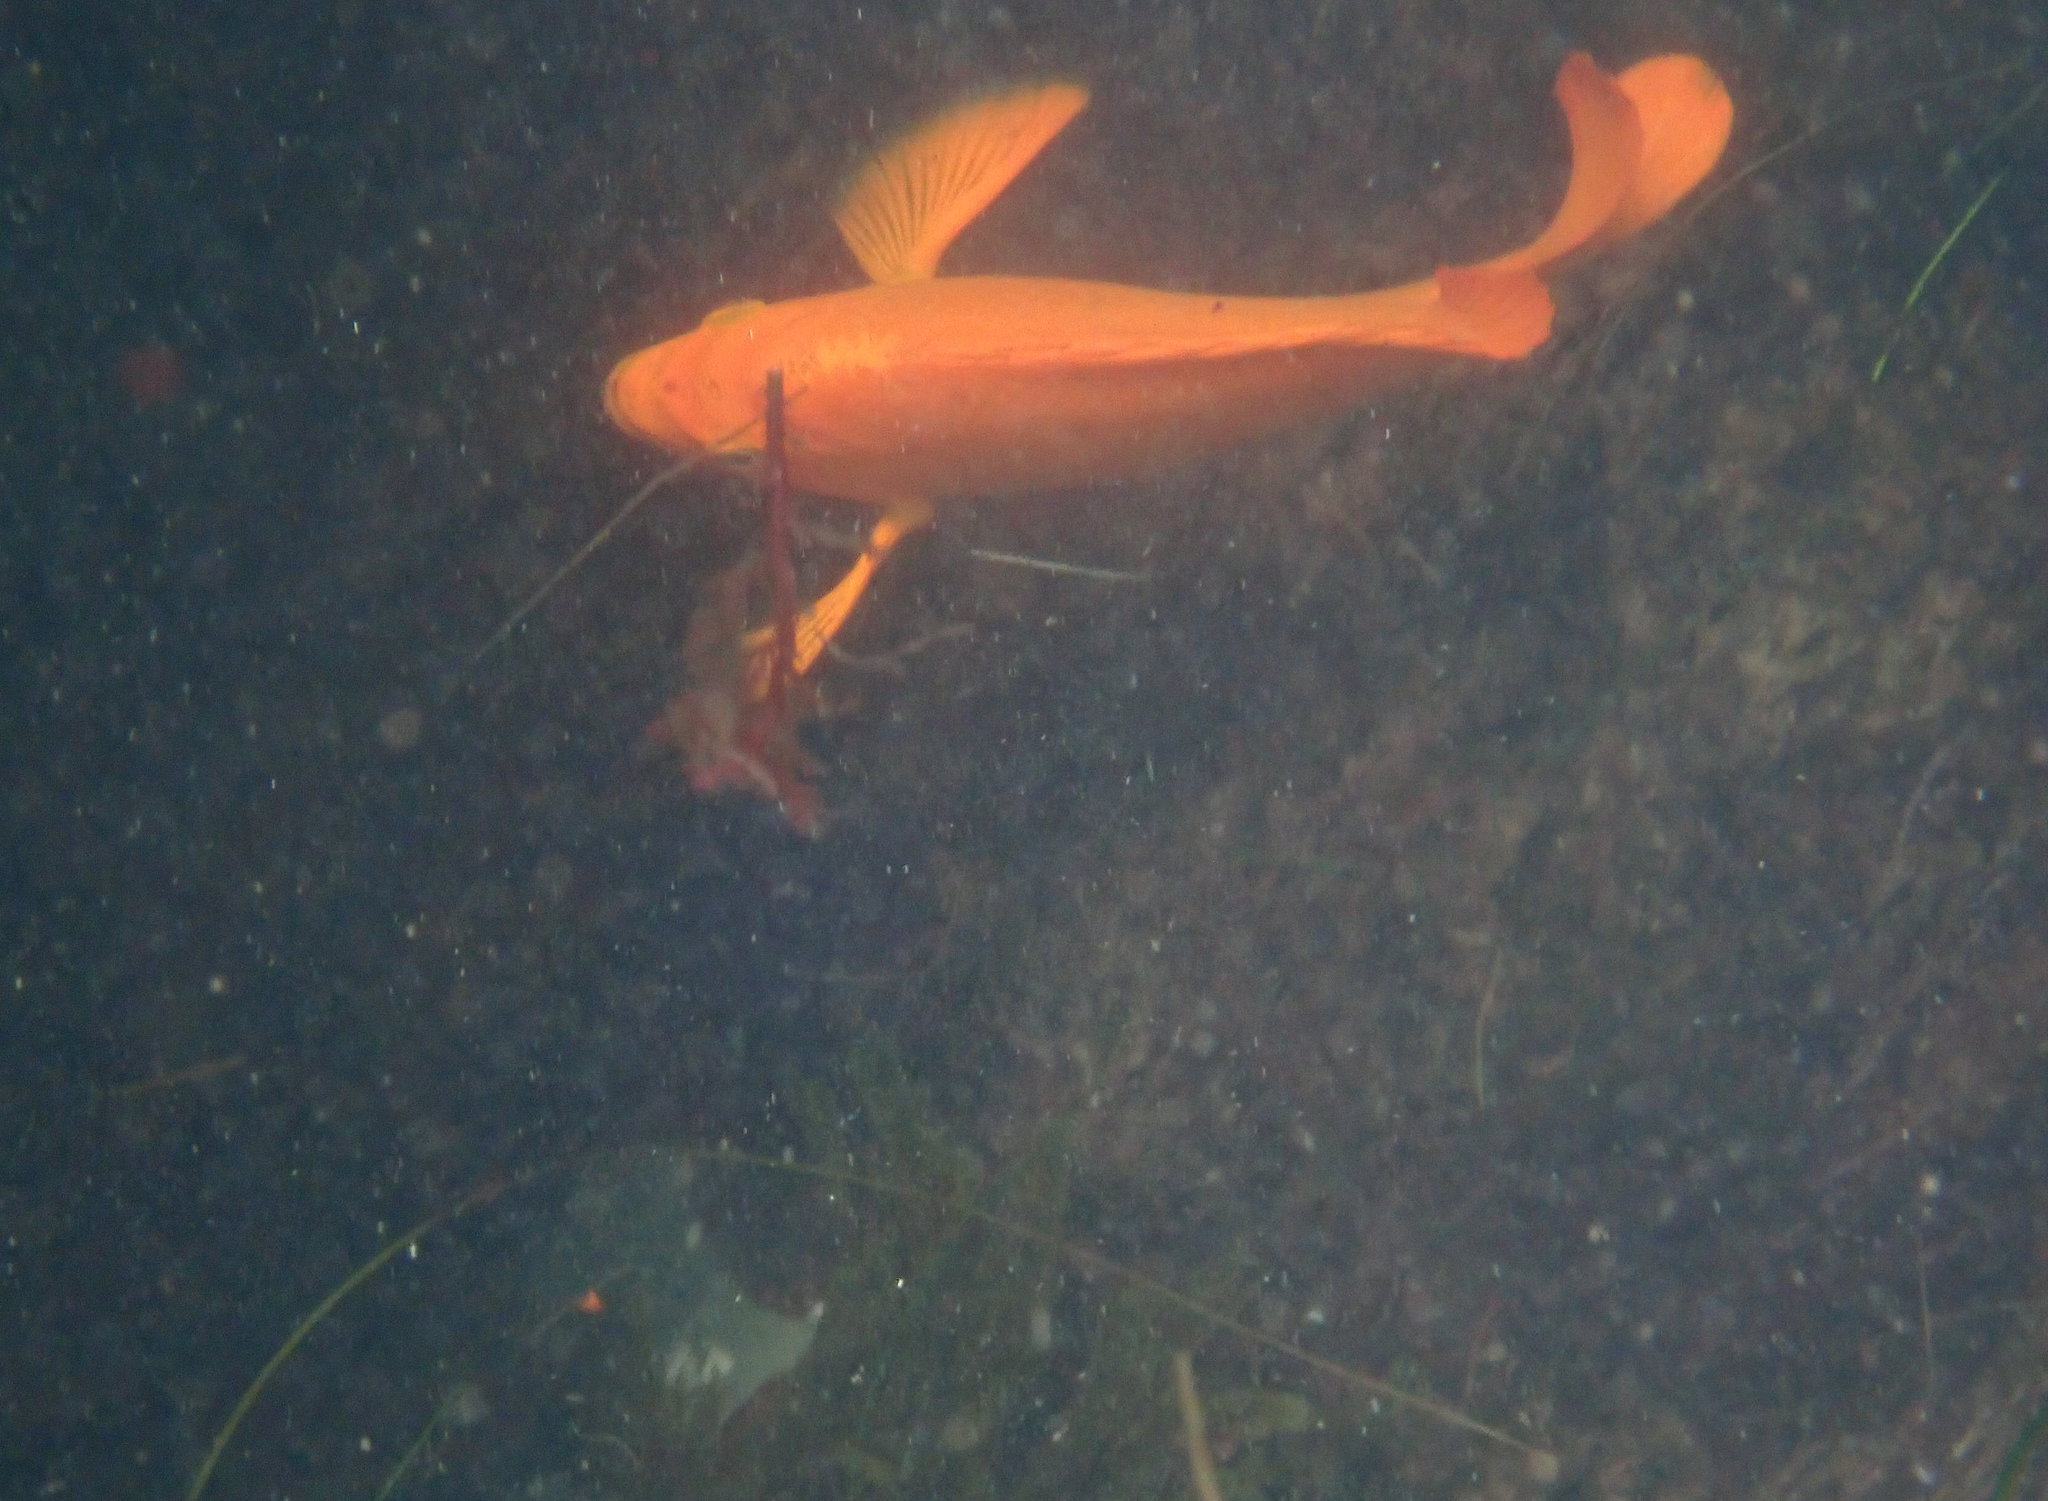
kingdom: Animalia
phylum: Chordata
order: Perciformes
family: Pomacentridae
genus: Hypsypops
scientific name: Hypsypops rubicundus
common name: Garibaldi
